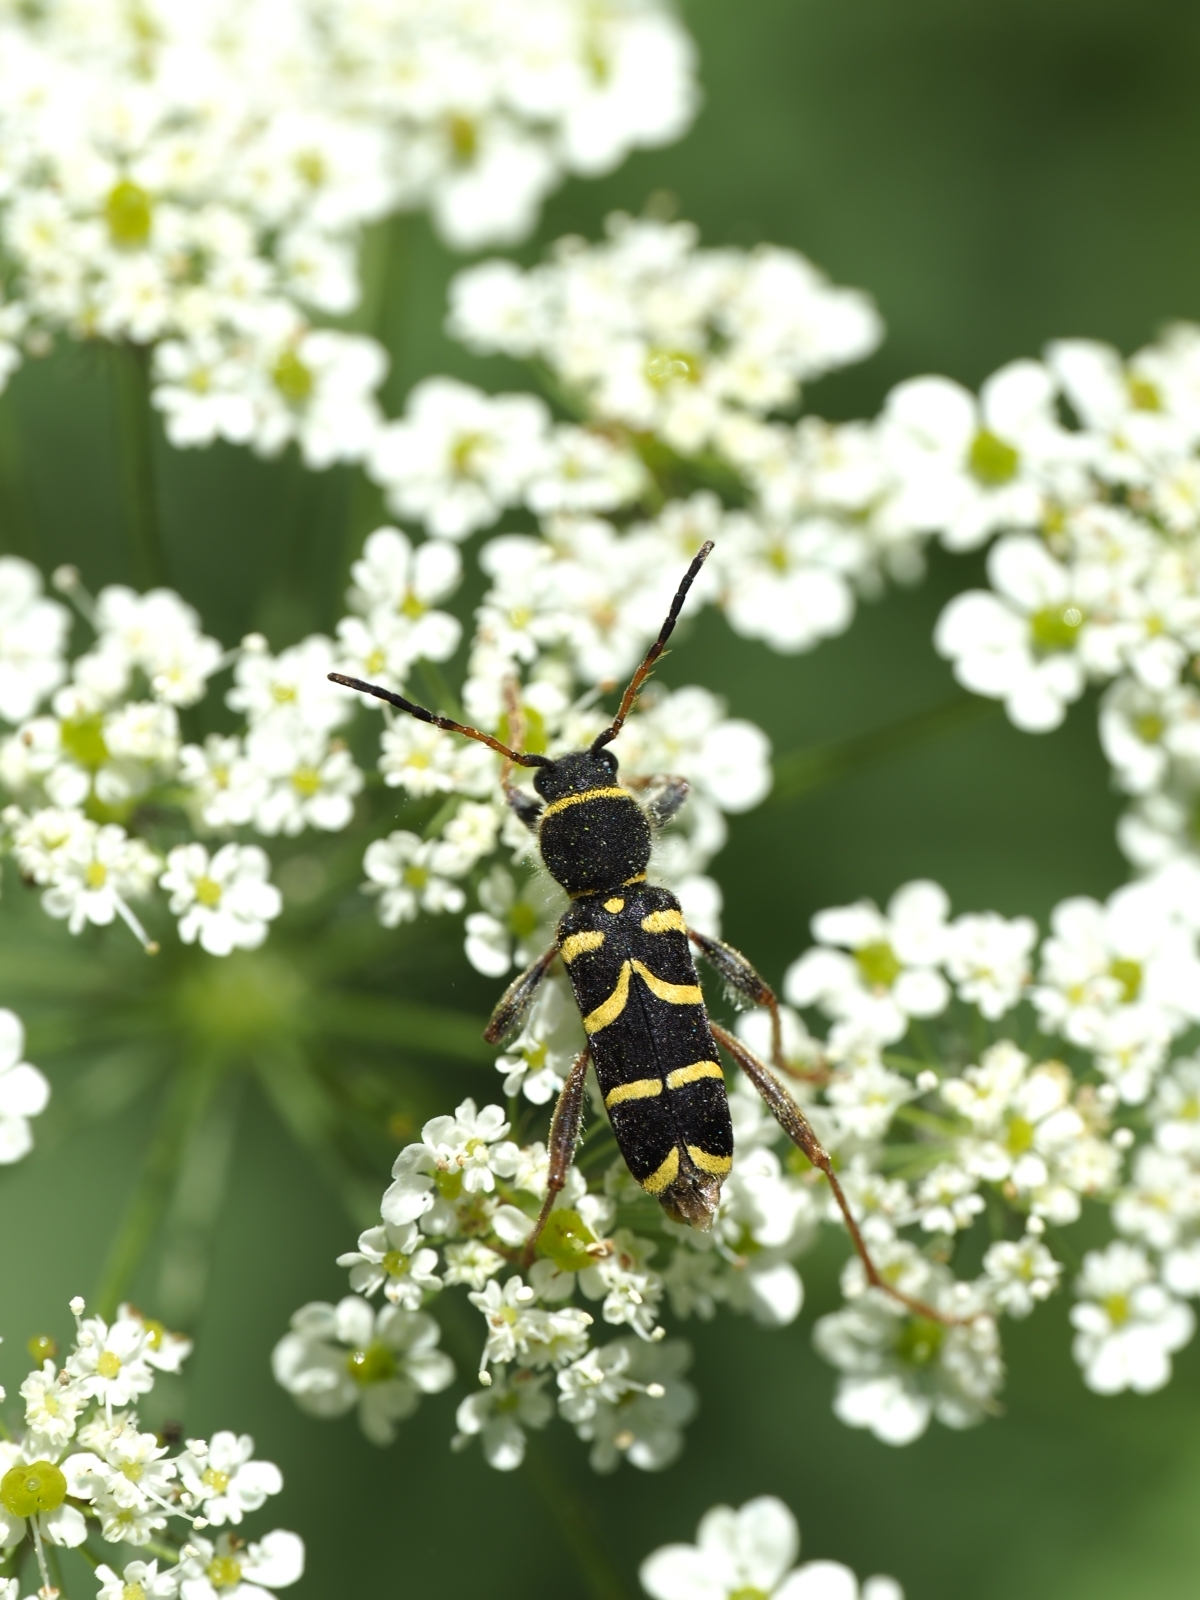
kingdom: Animalia
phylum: Arthropoda
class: Insecta
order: Coleoptera
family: Cerambycidae
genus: Clytus
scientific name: Clytus arietis
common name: Wasp beetle
